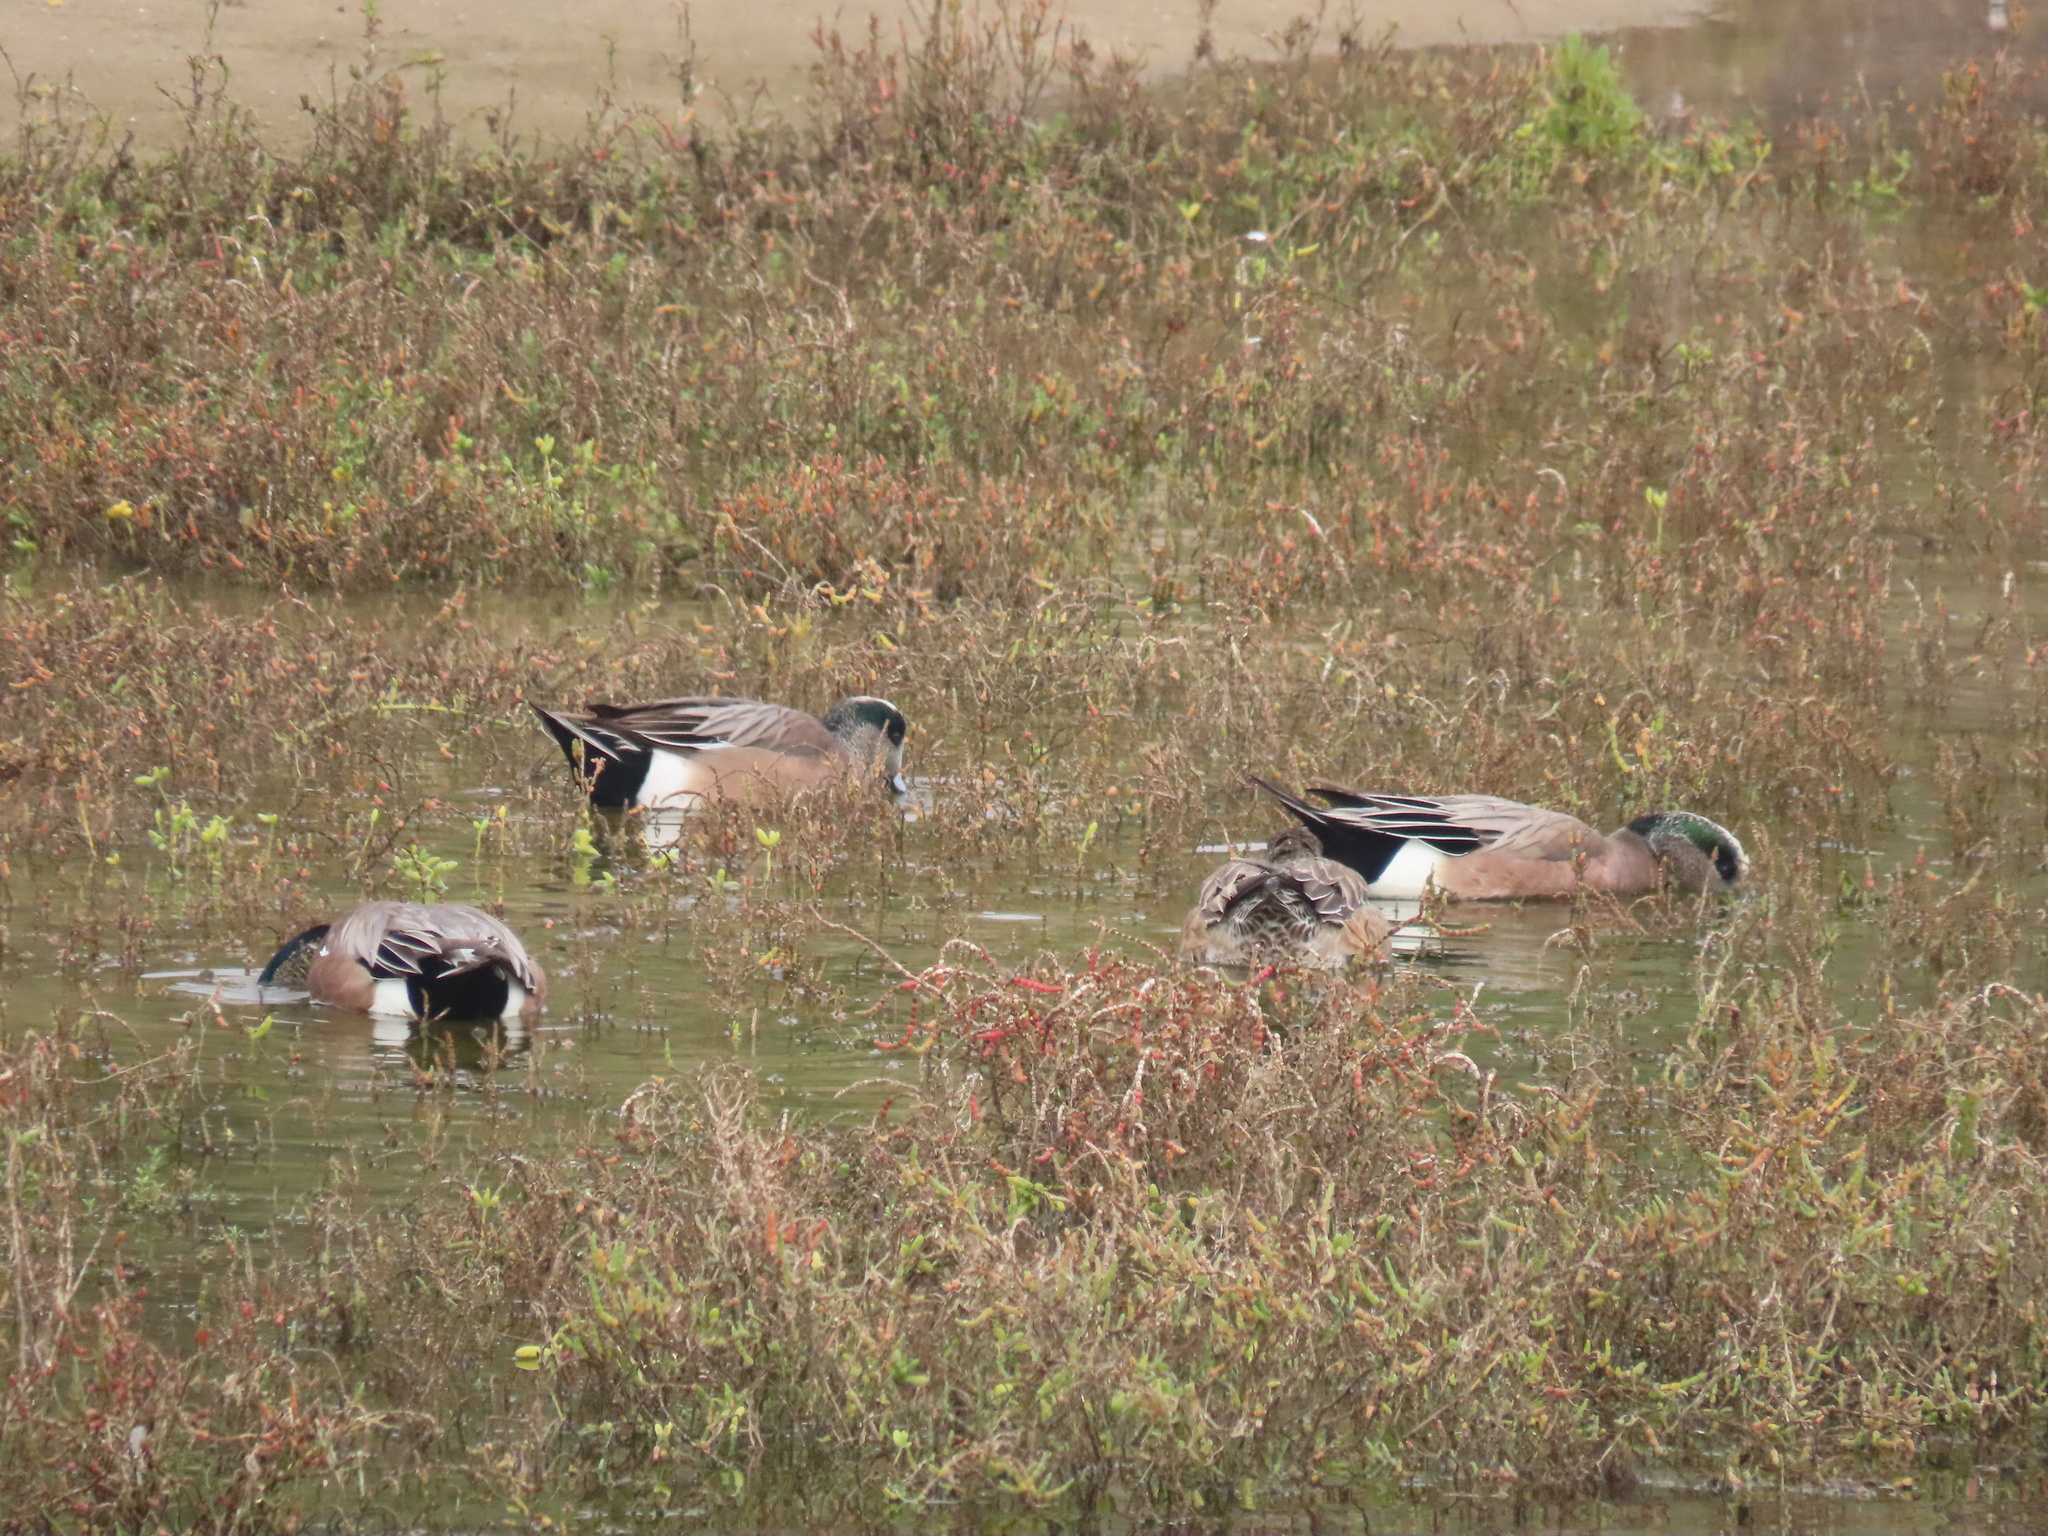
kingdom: Animalia
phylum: Chordata
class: Aves
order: Anseriformes
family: Anatidae
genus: Mareca
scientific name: Mareca americana
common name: American wigeon
